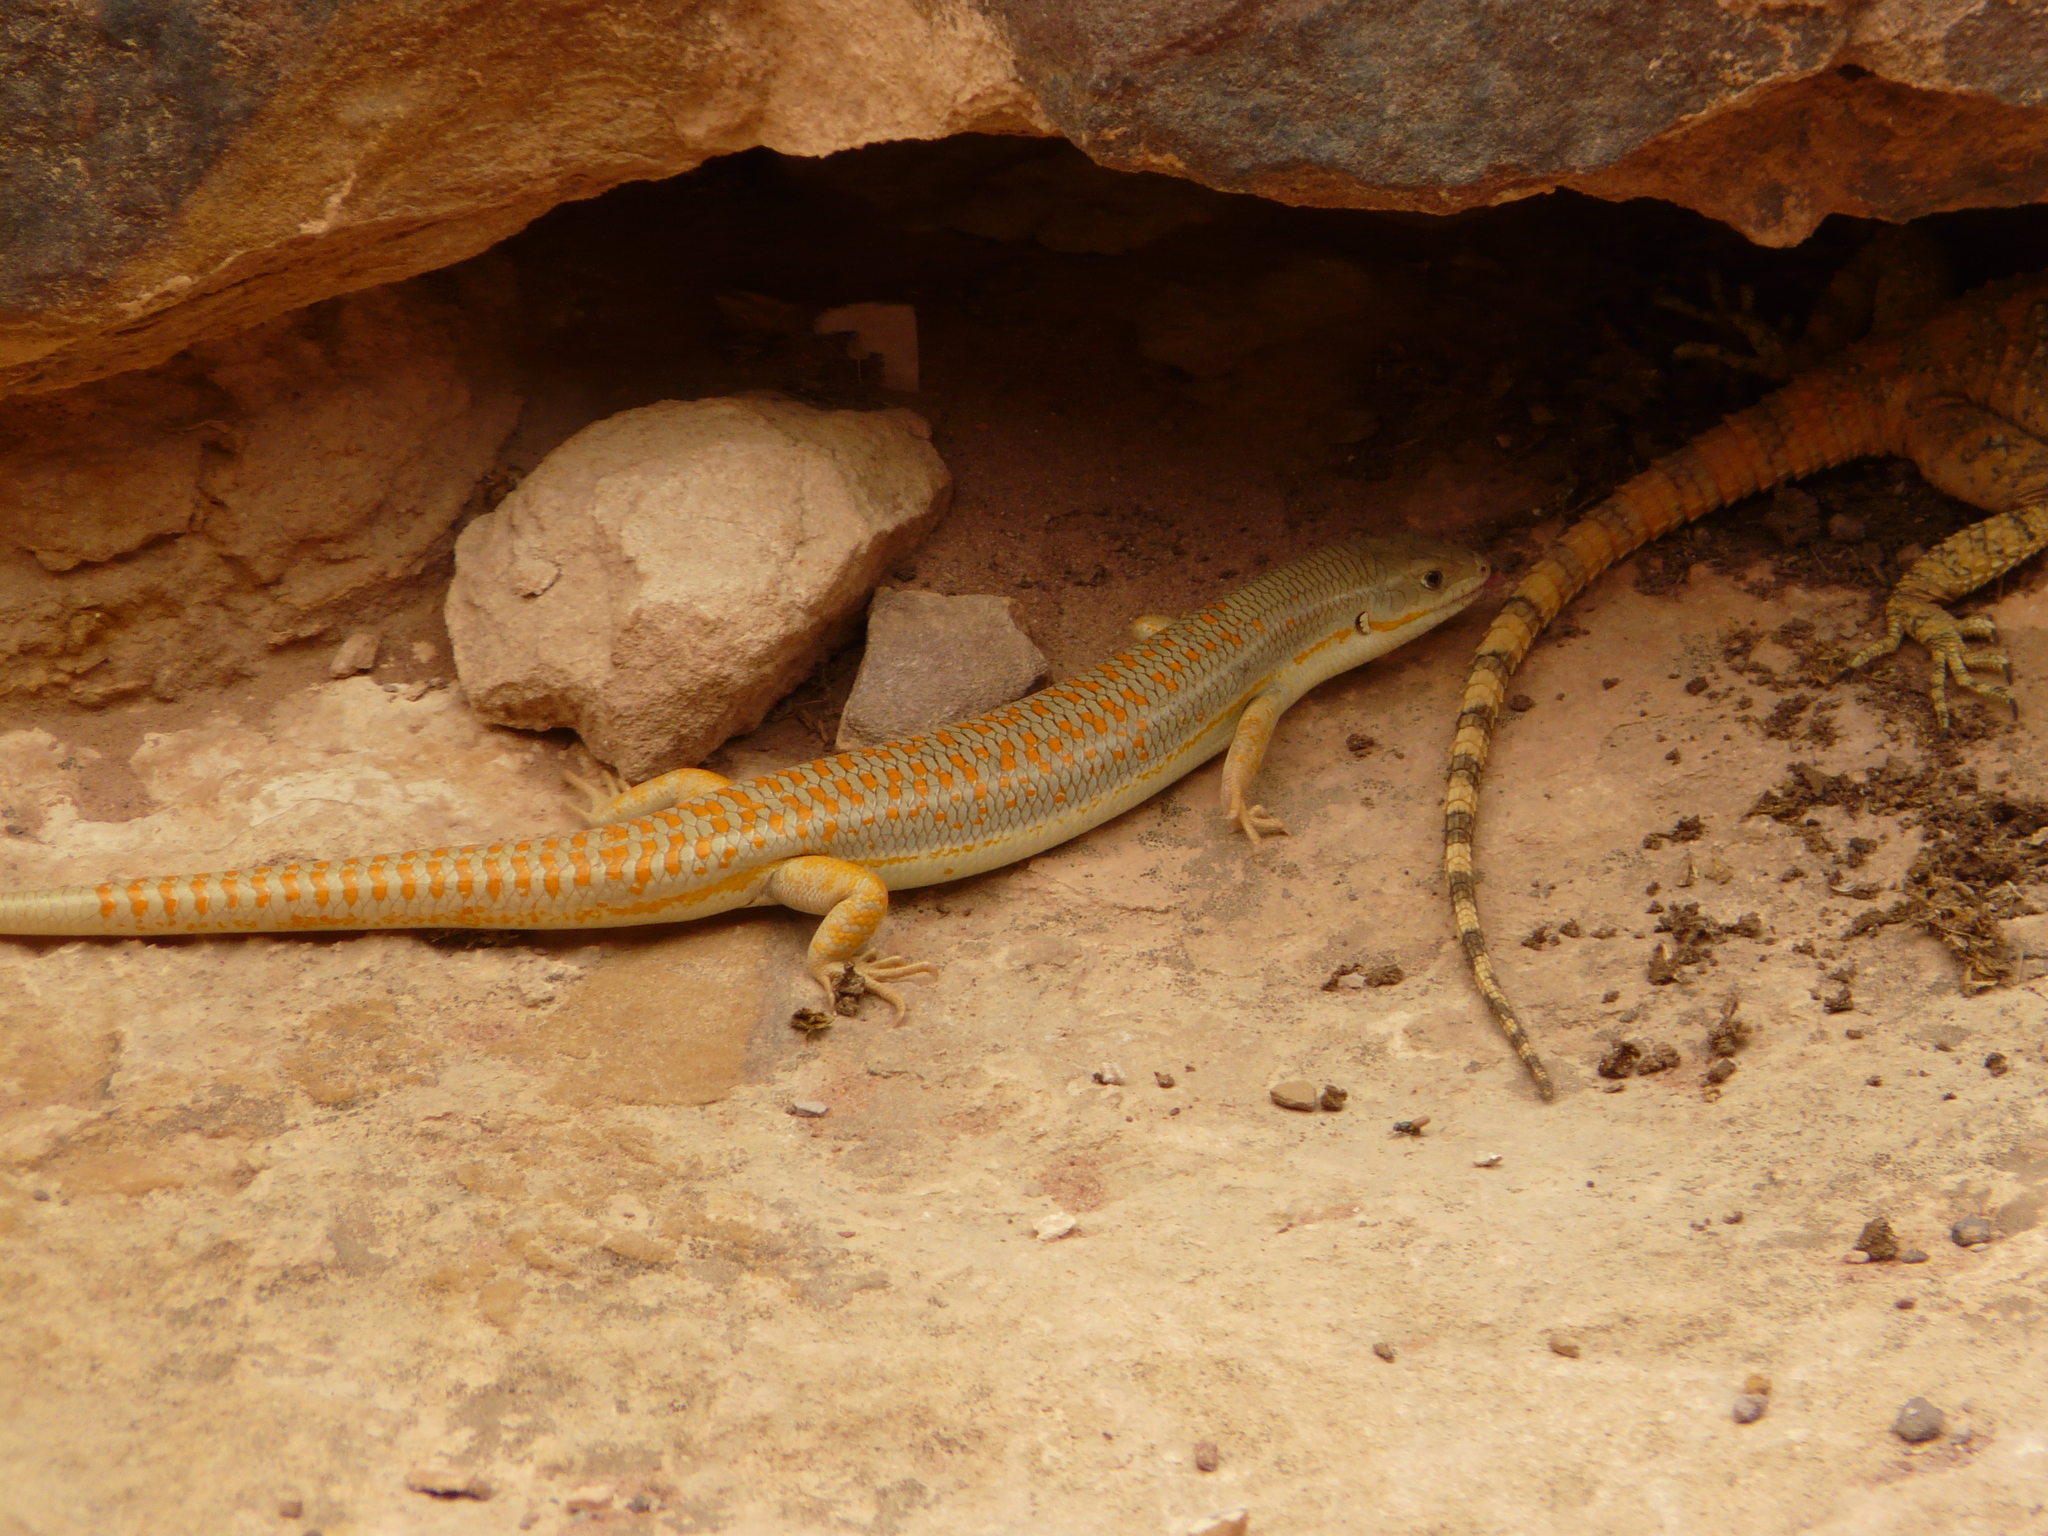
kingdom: Animalia
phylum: Chordata
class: Squamata
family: Scincidae
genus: Eumeces
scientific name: Eumeces schneiderii
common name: Schneider's skink
